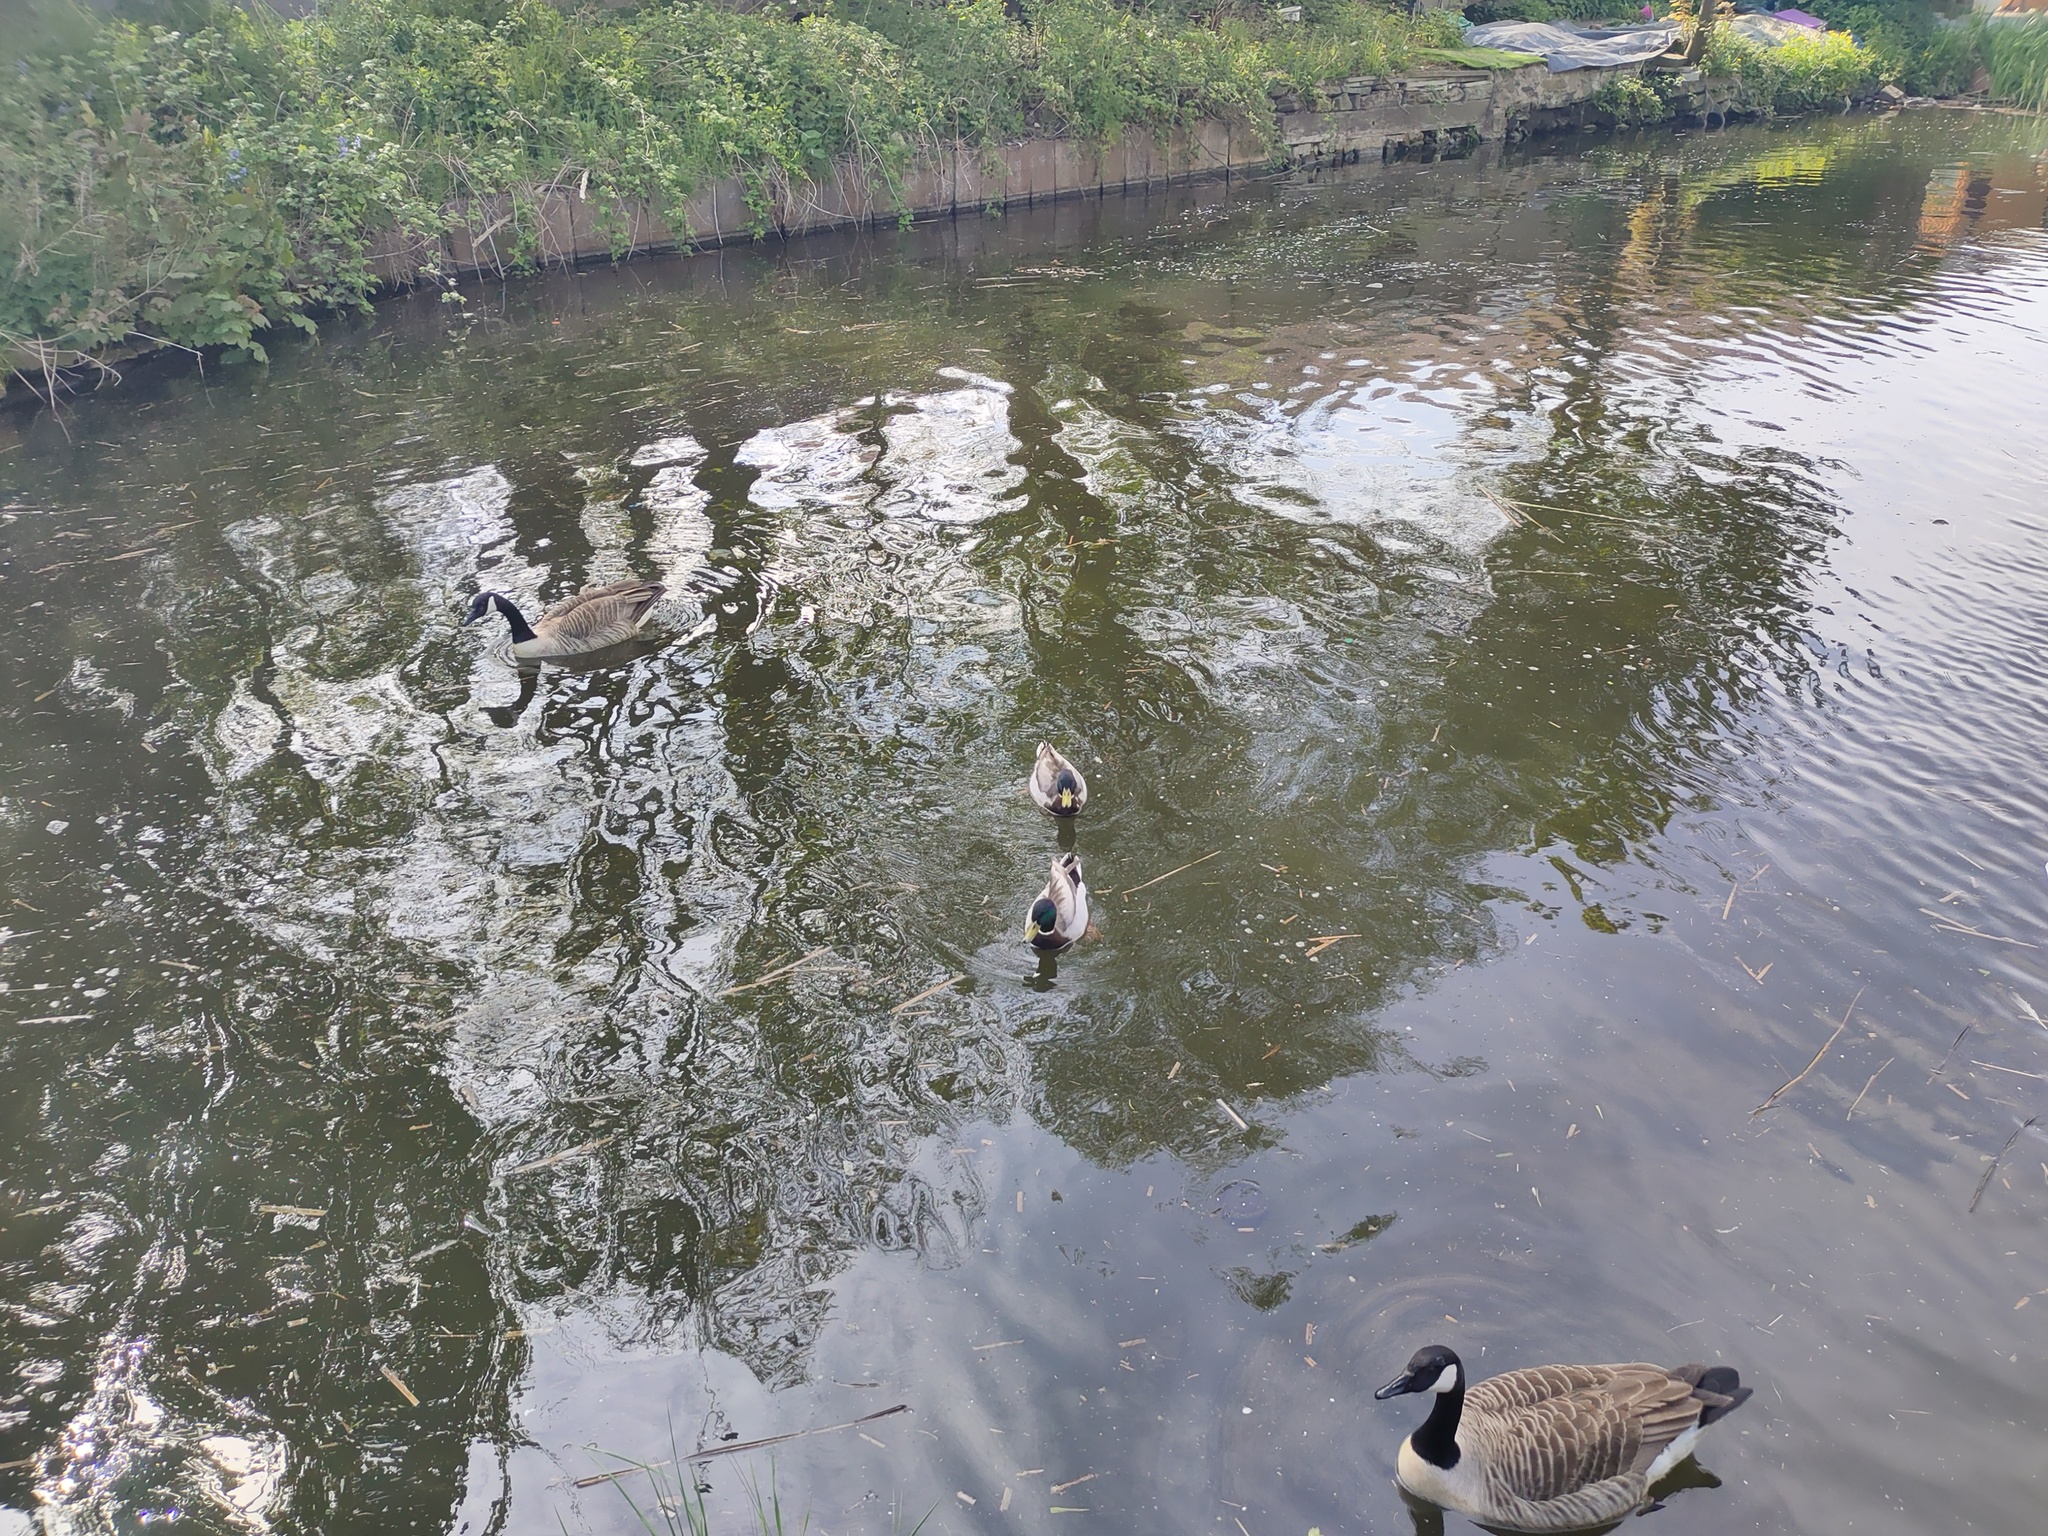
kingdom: Animalia
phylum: Chordata
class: Aves
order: Anseriformes
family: Anatidae
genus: Anas
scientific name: Anas platyrhynchos
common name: Mallard
